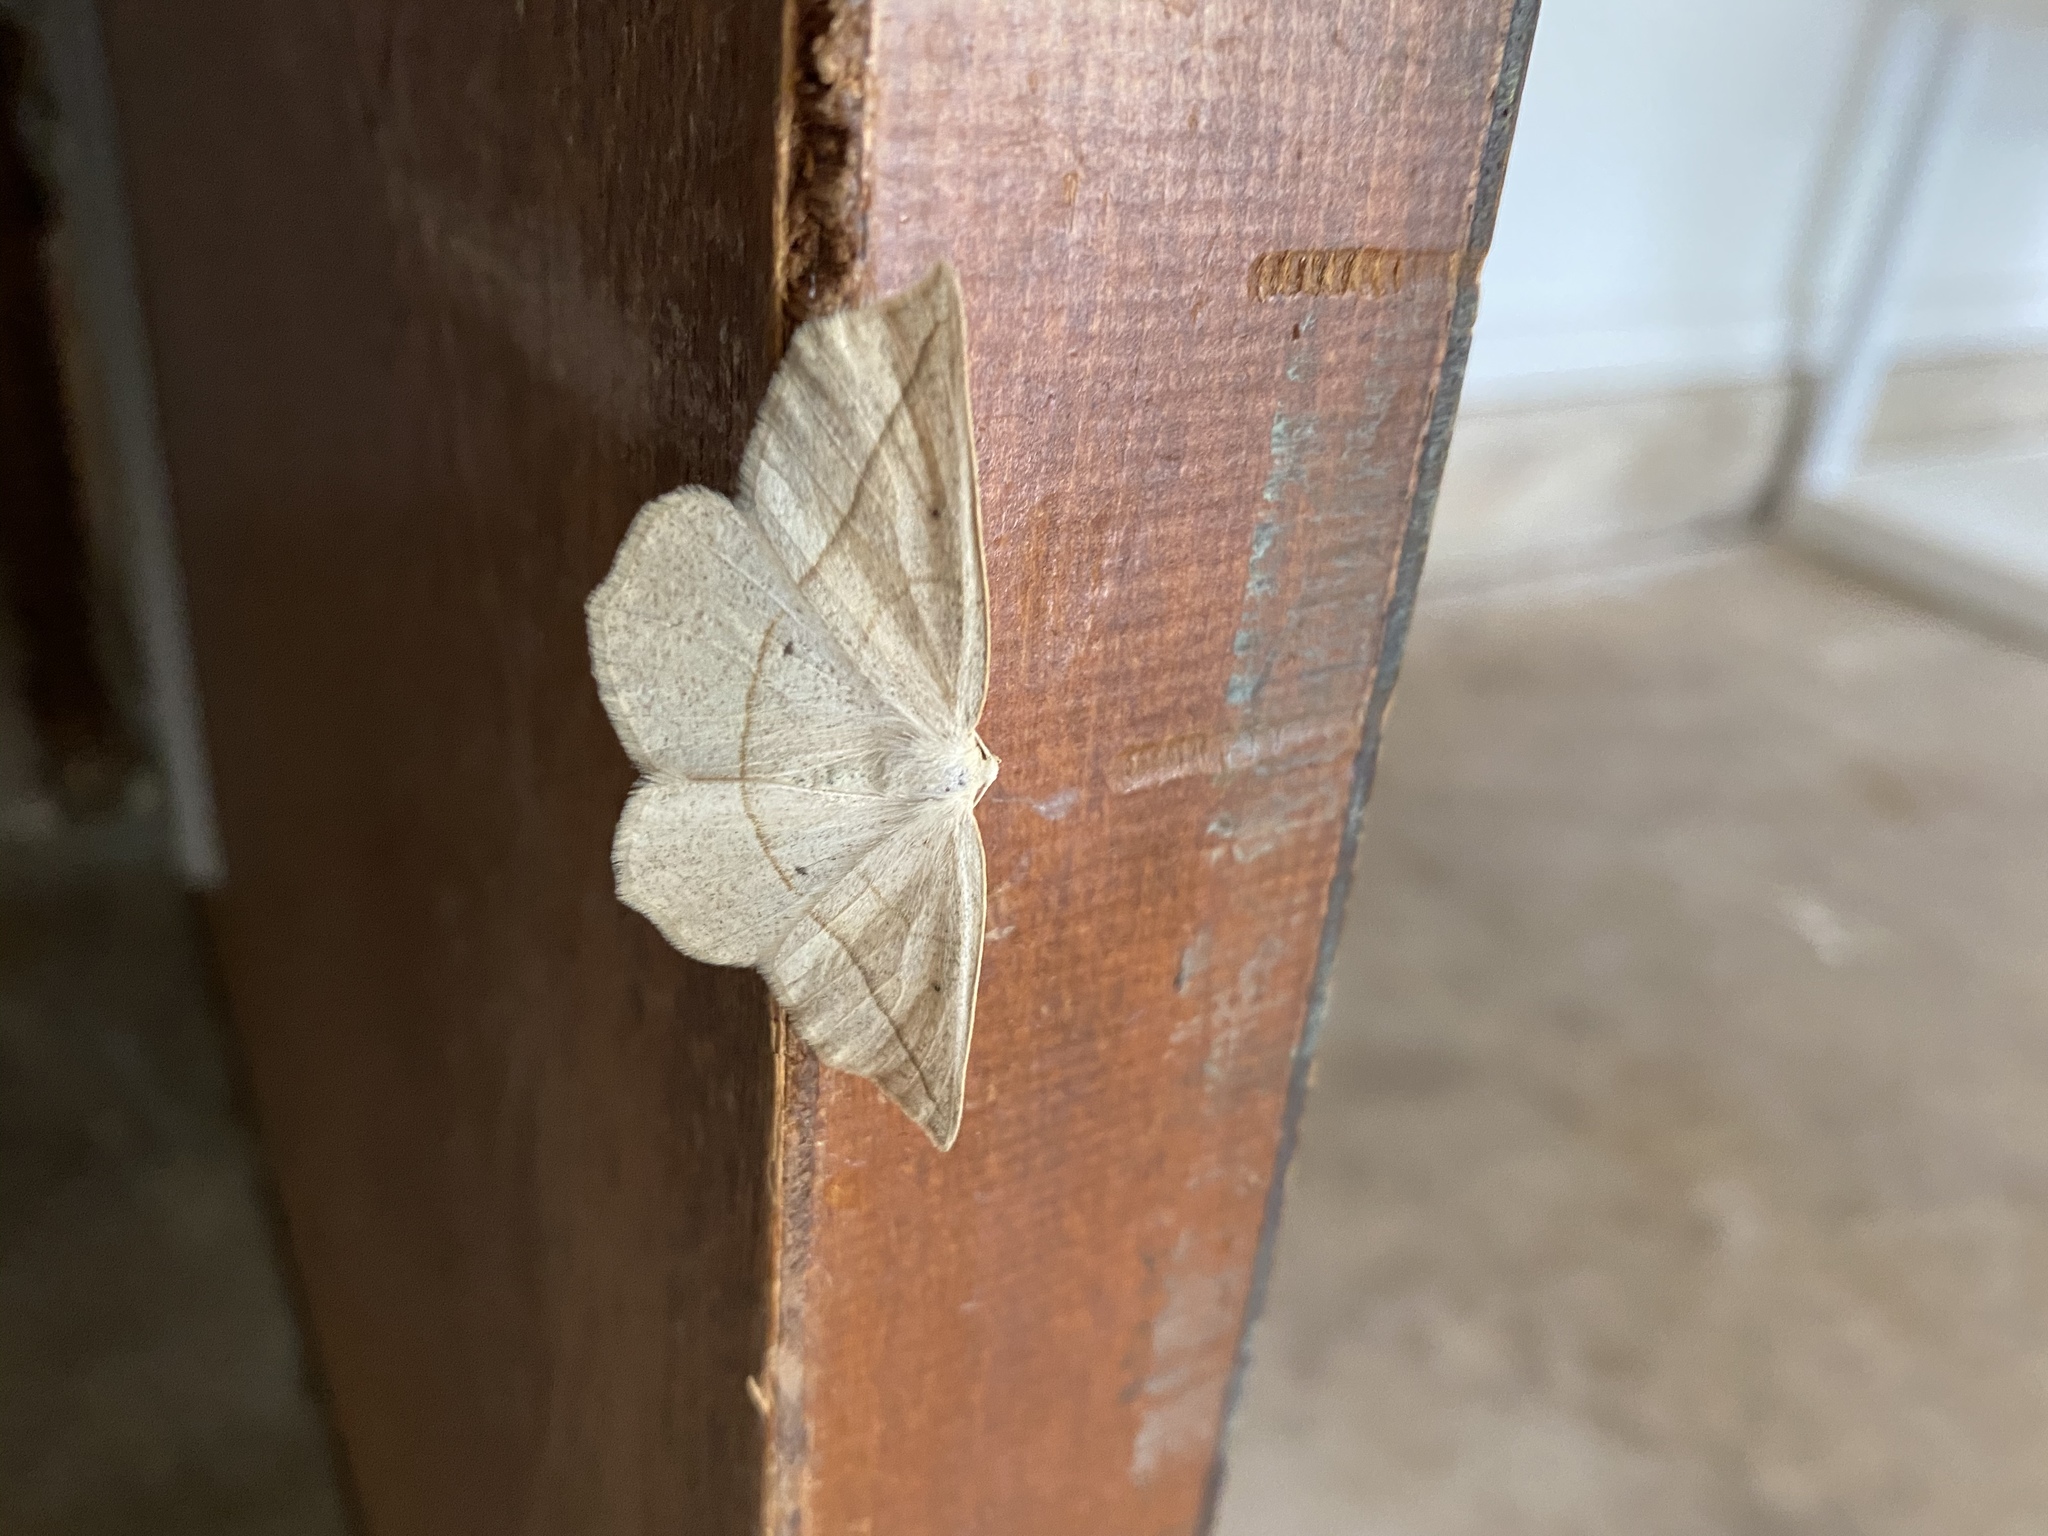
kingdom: Animalia
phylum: Arthropoda
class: Insecta
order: Lepidoptera
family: Geometridae
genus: Eusarca
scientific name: Eusarca confusaria
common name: Confused eusarca
